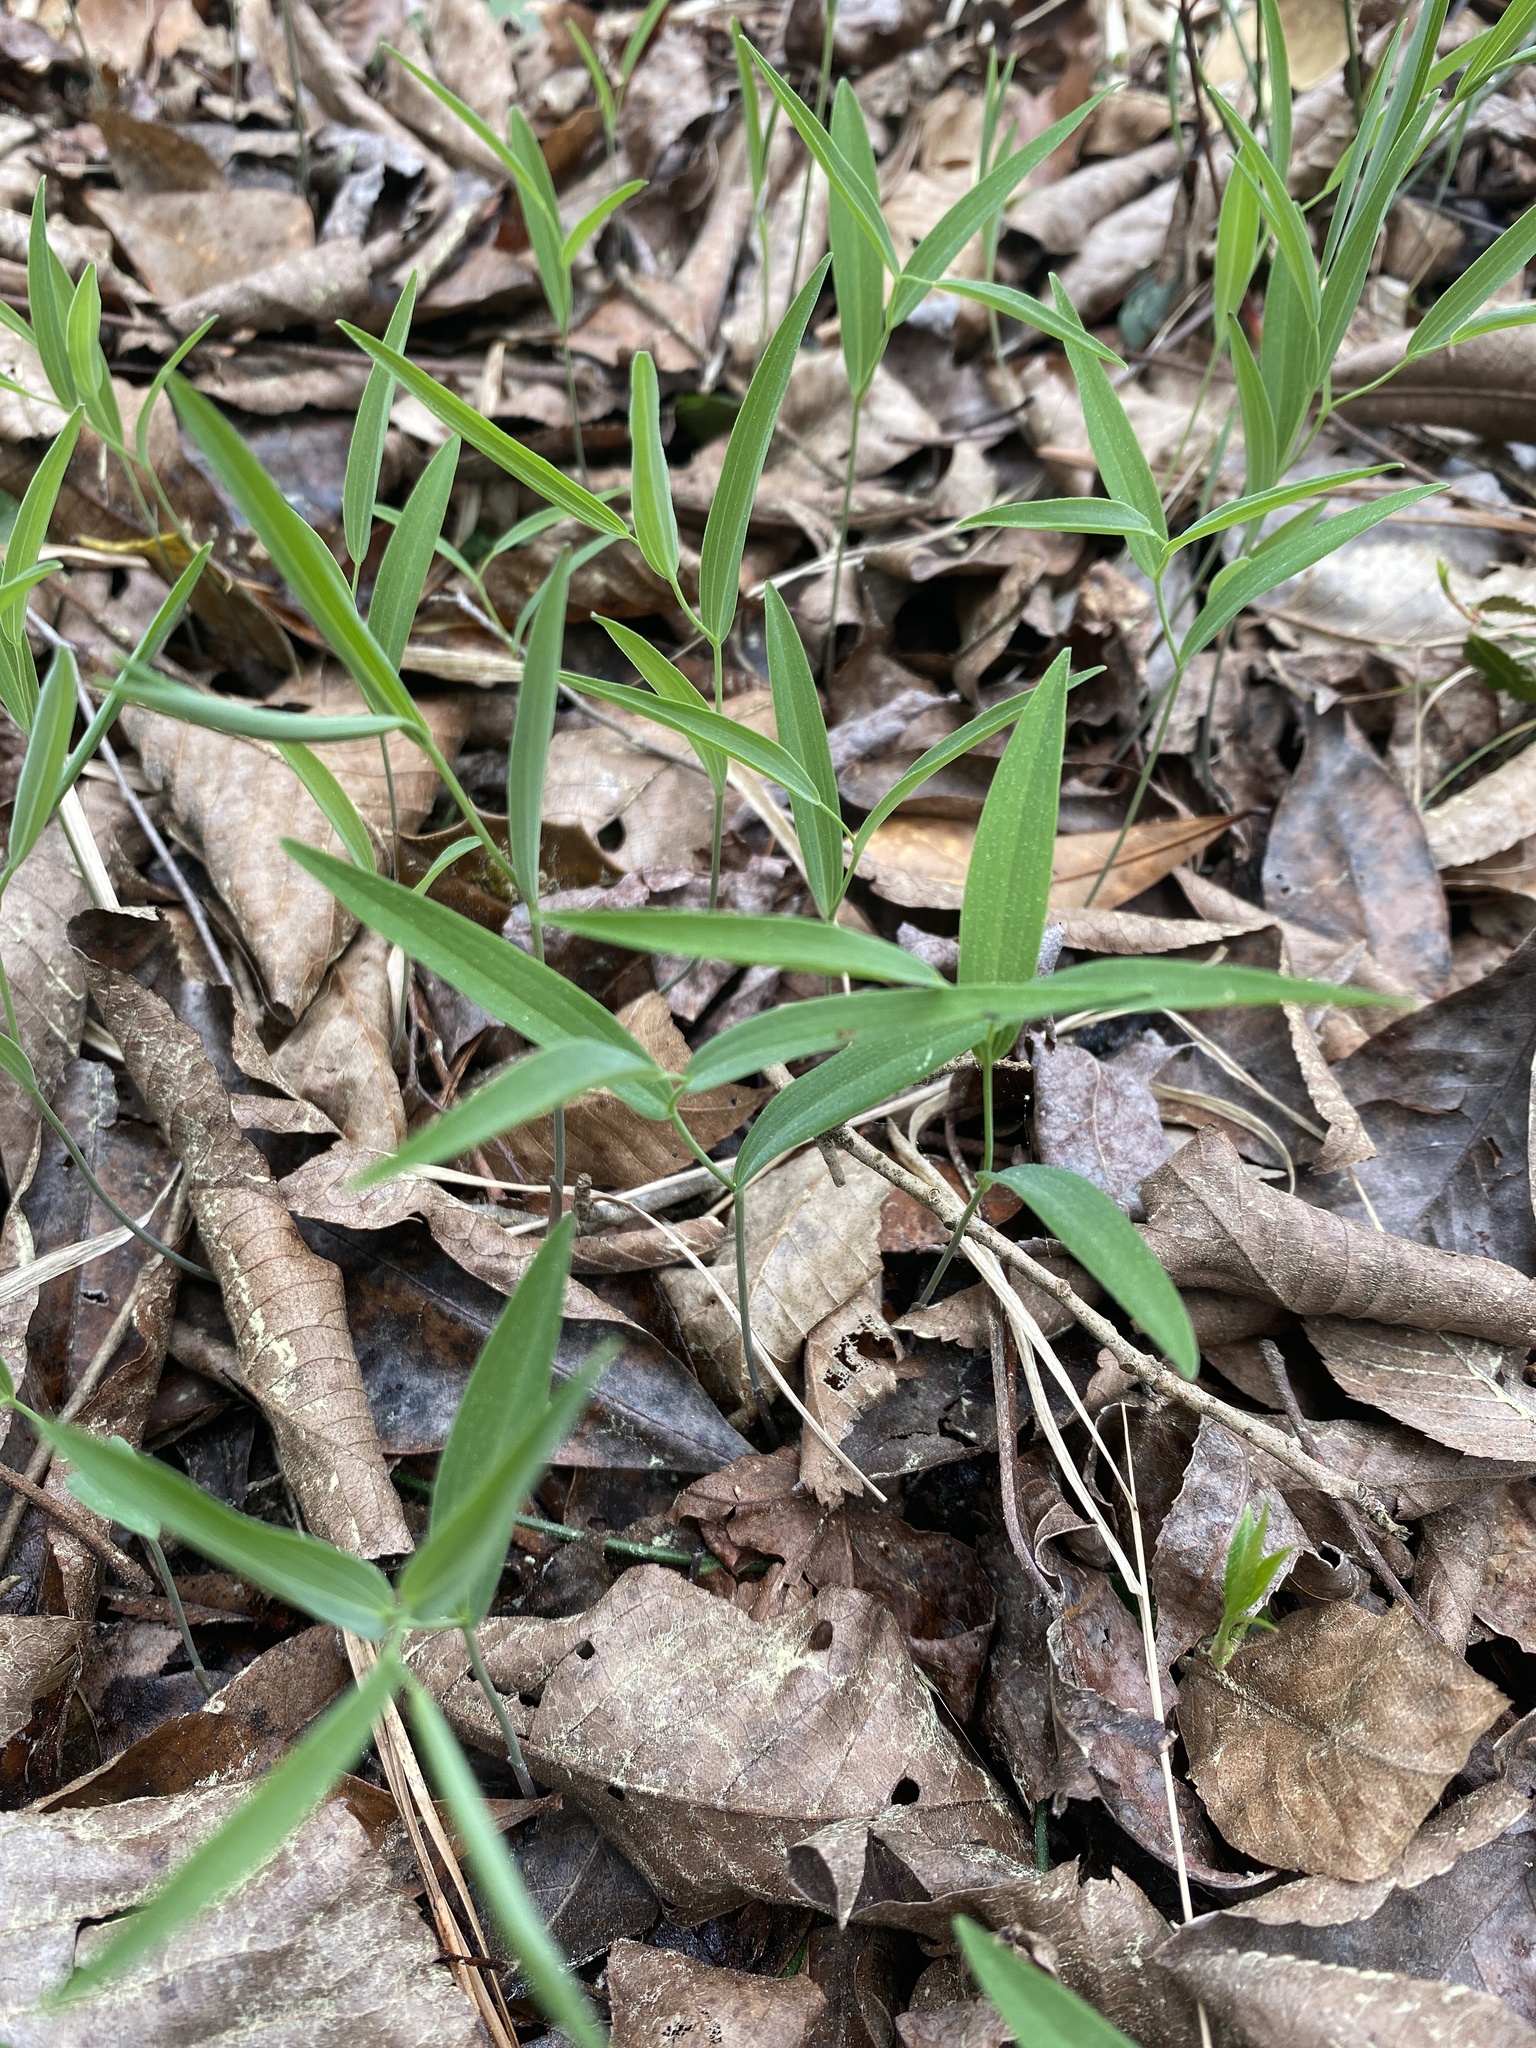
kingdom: Plantae
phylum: Tracheophyta
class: Liliopsida
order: Asparagales
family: Asparagaceae
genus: Polygonatum
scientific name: Polygonatum biflorum
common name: American solomon's-seal
